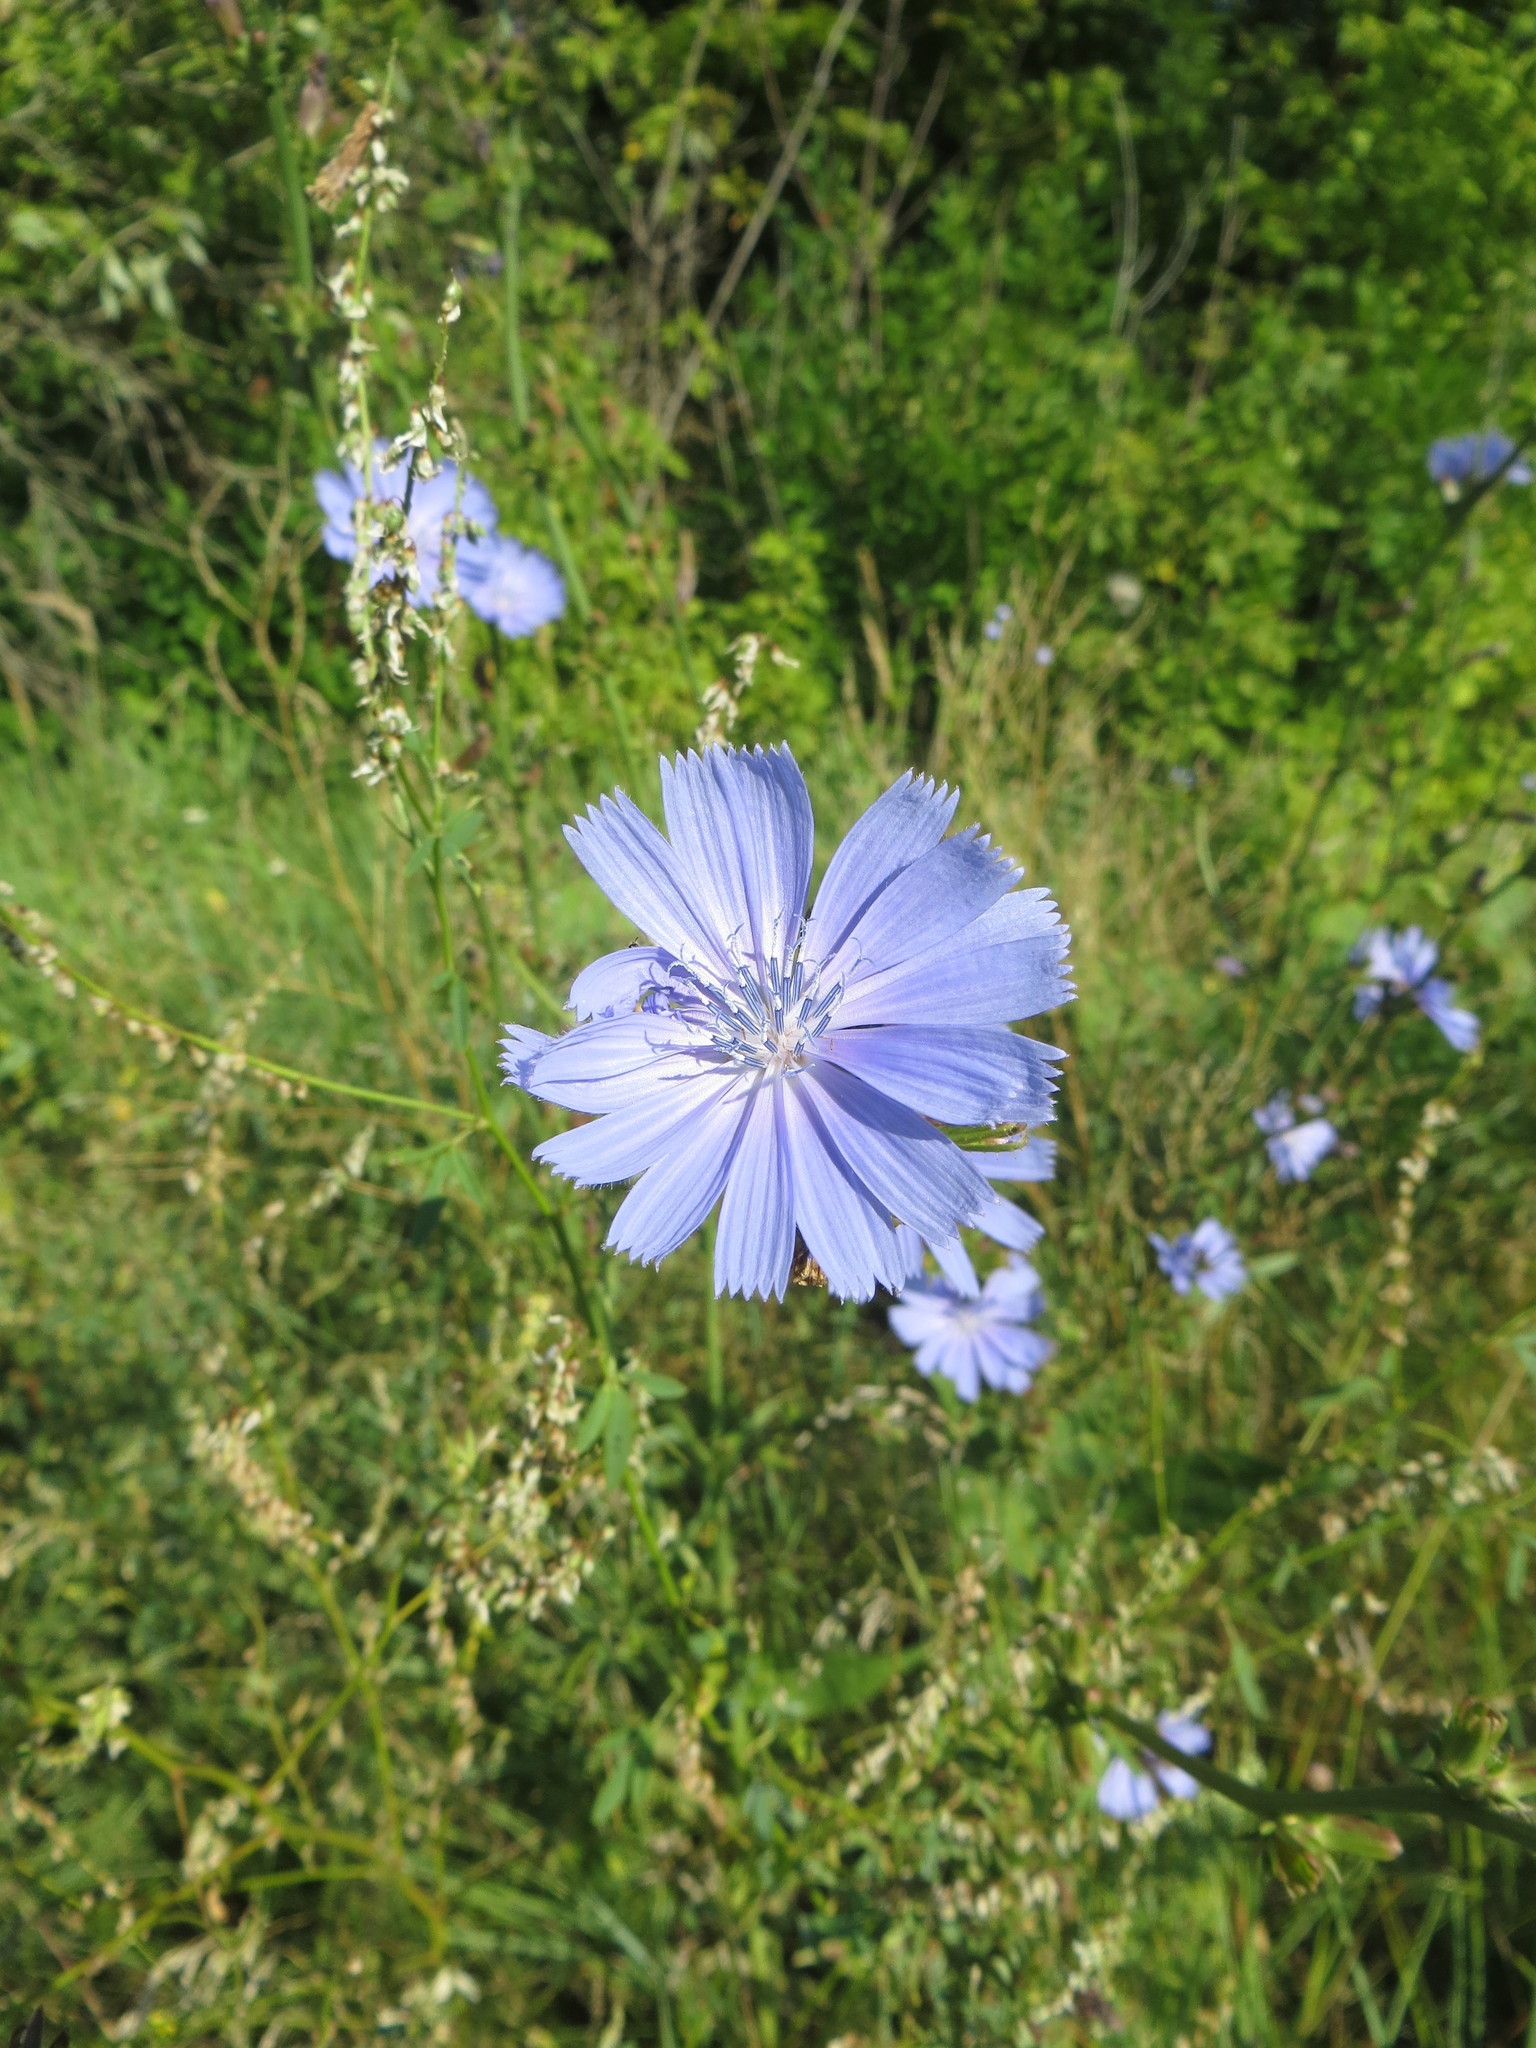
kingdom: Plantae
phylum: Tracheophyta
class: Magnoliopsida
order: Asterales
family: Asteraceae
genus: Cichorium
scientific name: Cichorium intybus
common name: Chicory
